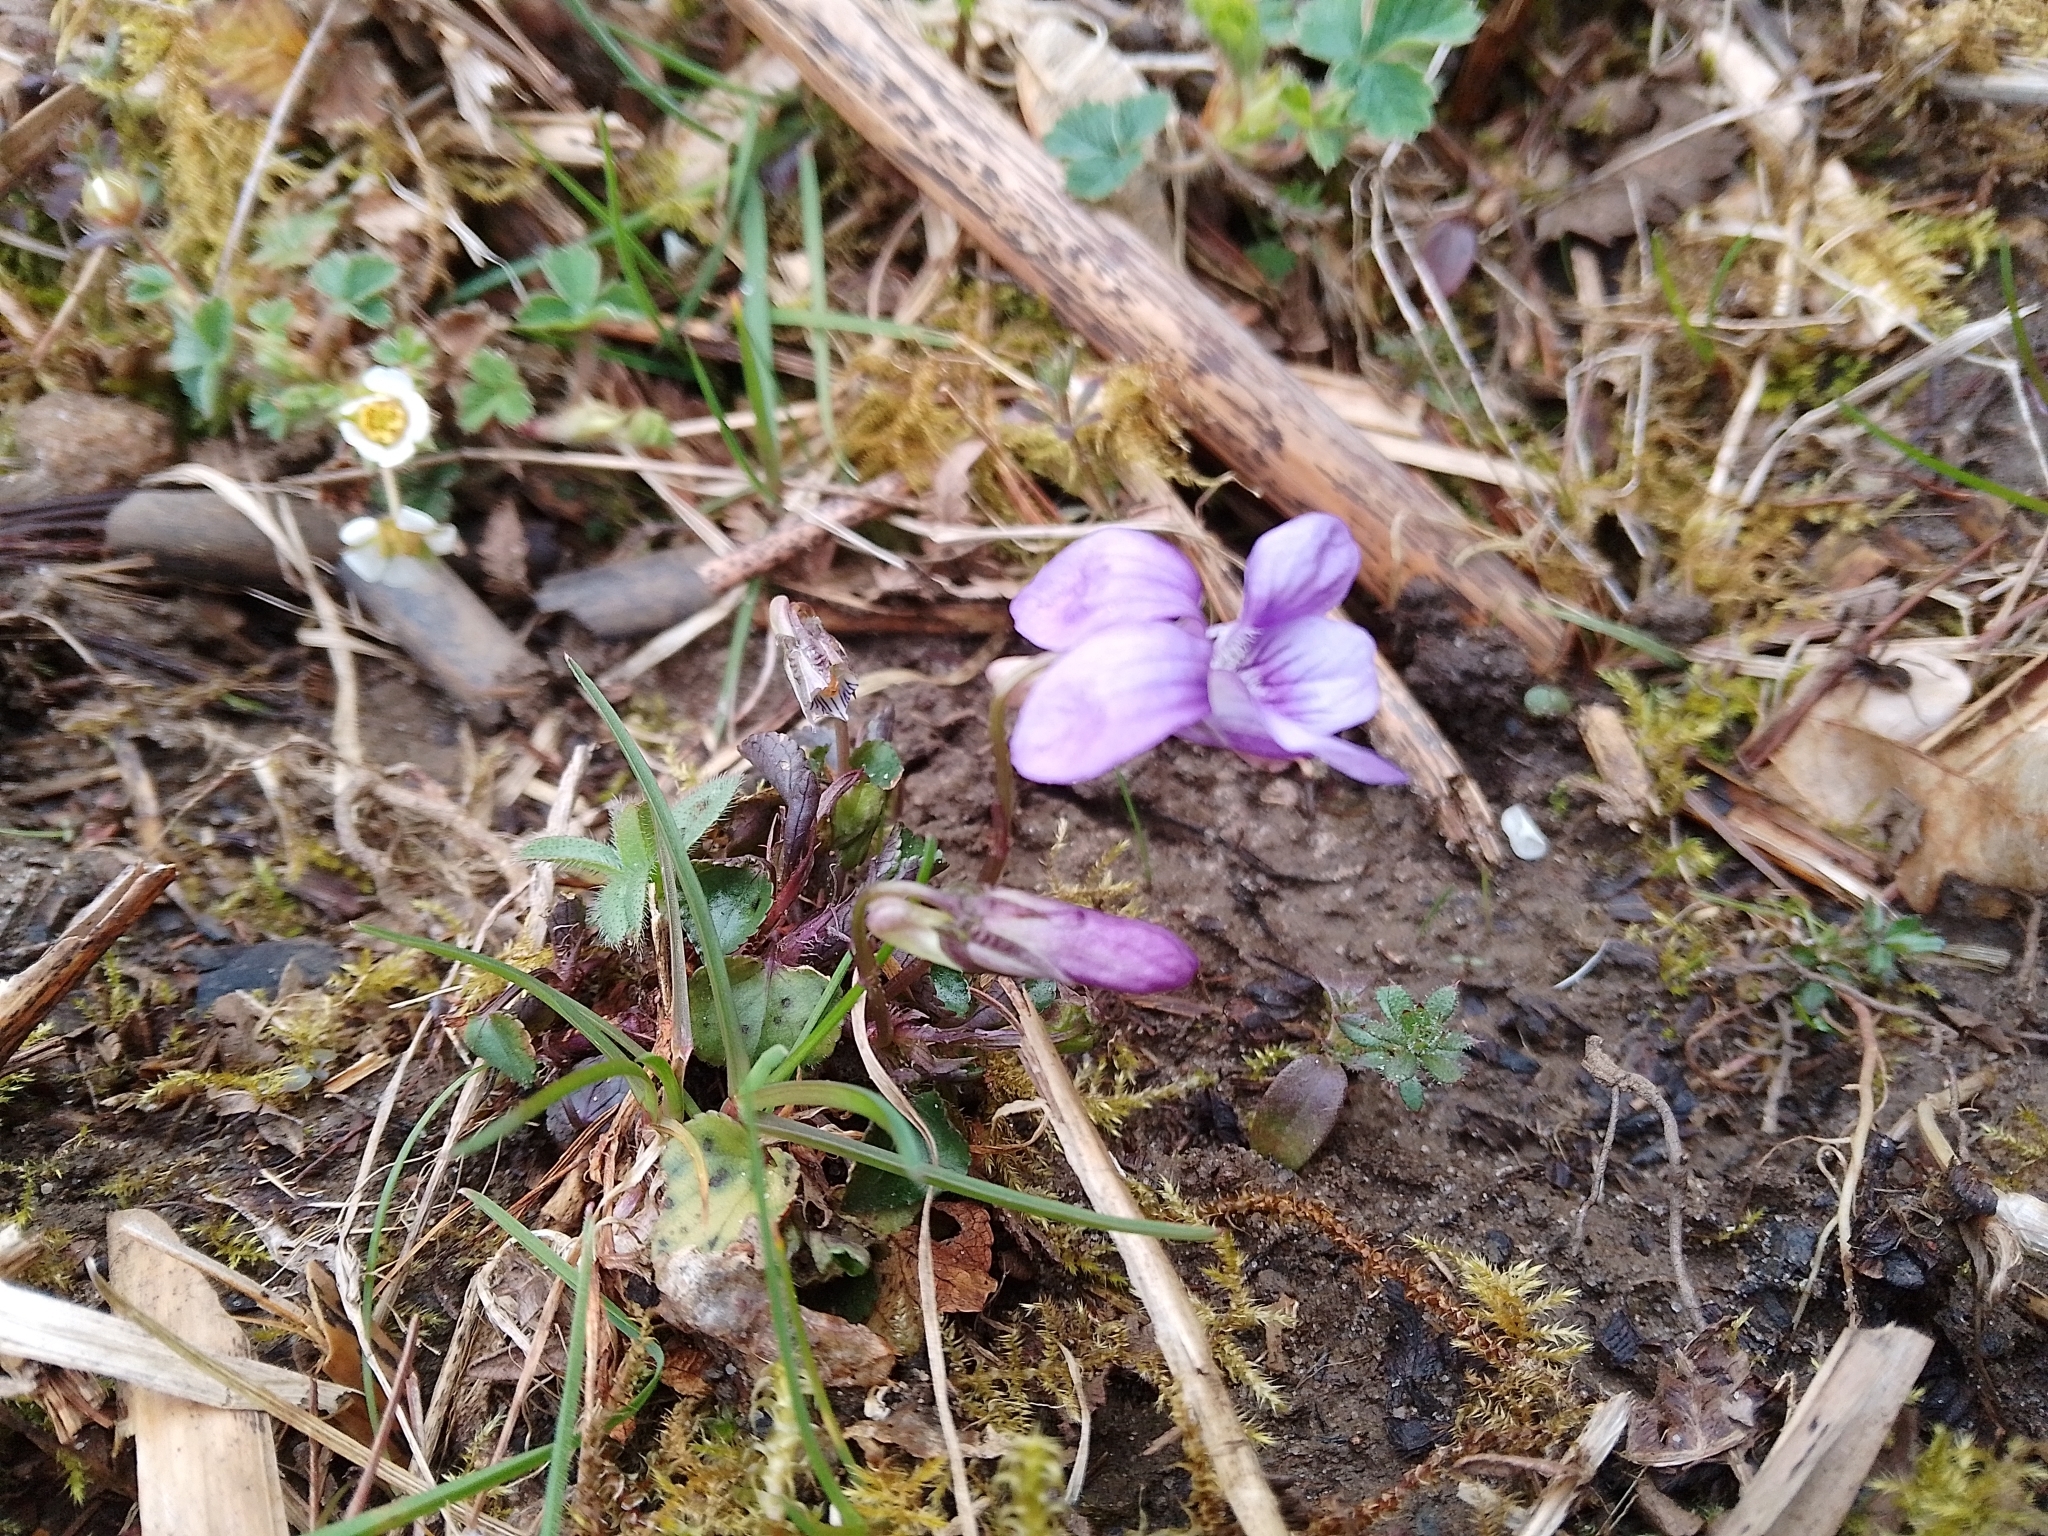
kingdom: Plantae
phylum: Tracheophyta
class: Magnoliopsida
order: Malpighiales
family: Violaceae
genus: Viola
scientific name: Viola riviniana
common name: Common dog-violet
